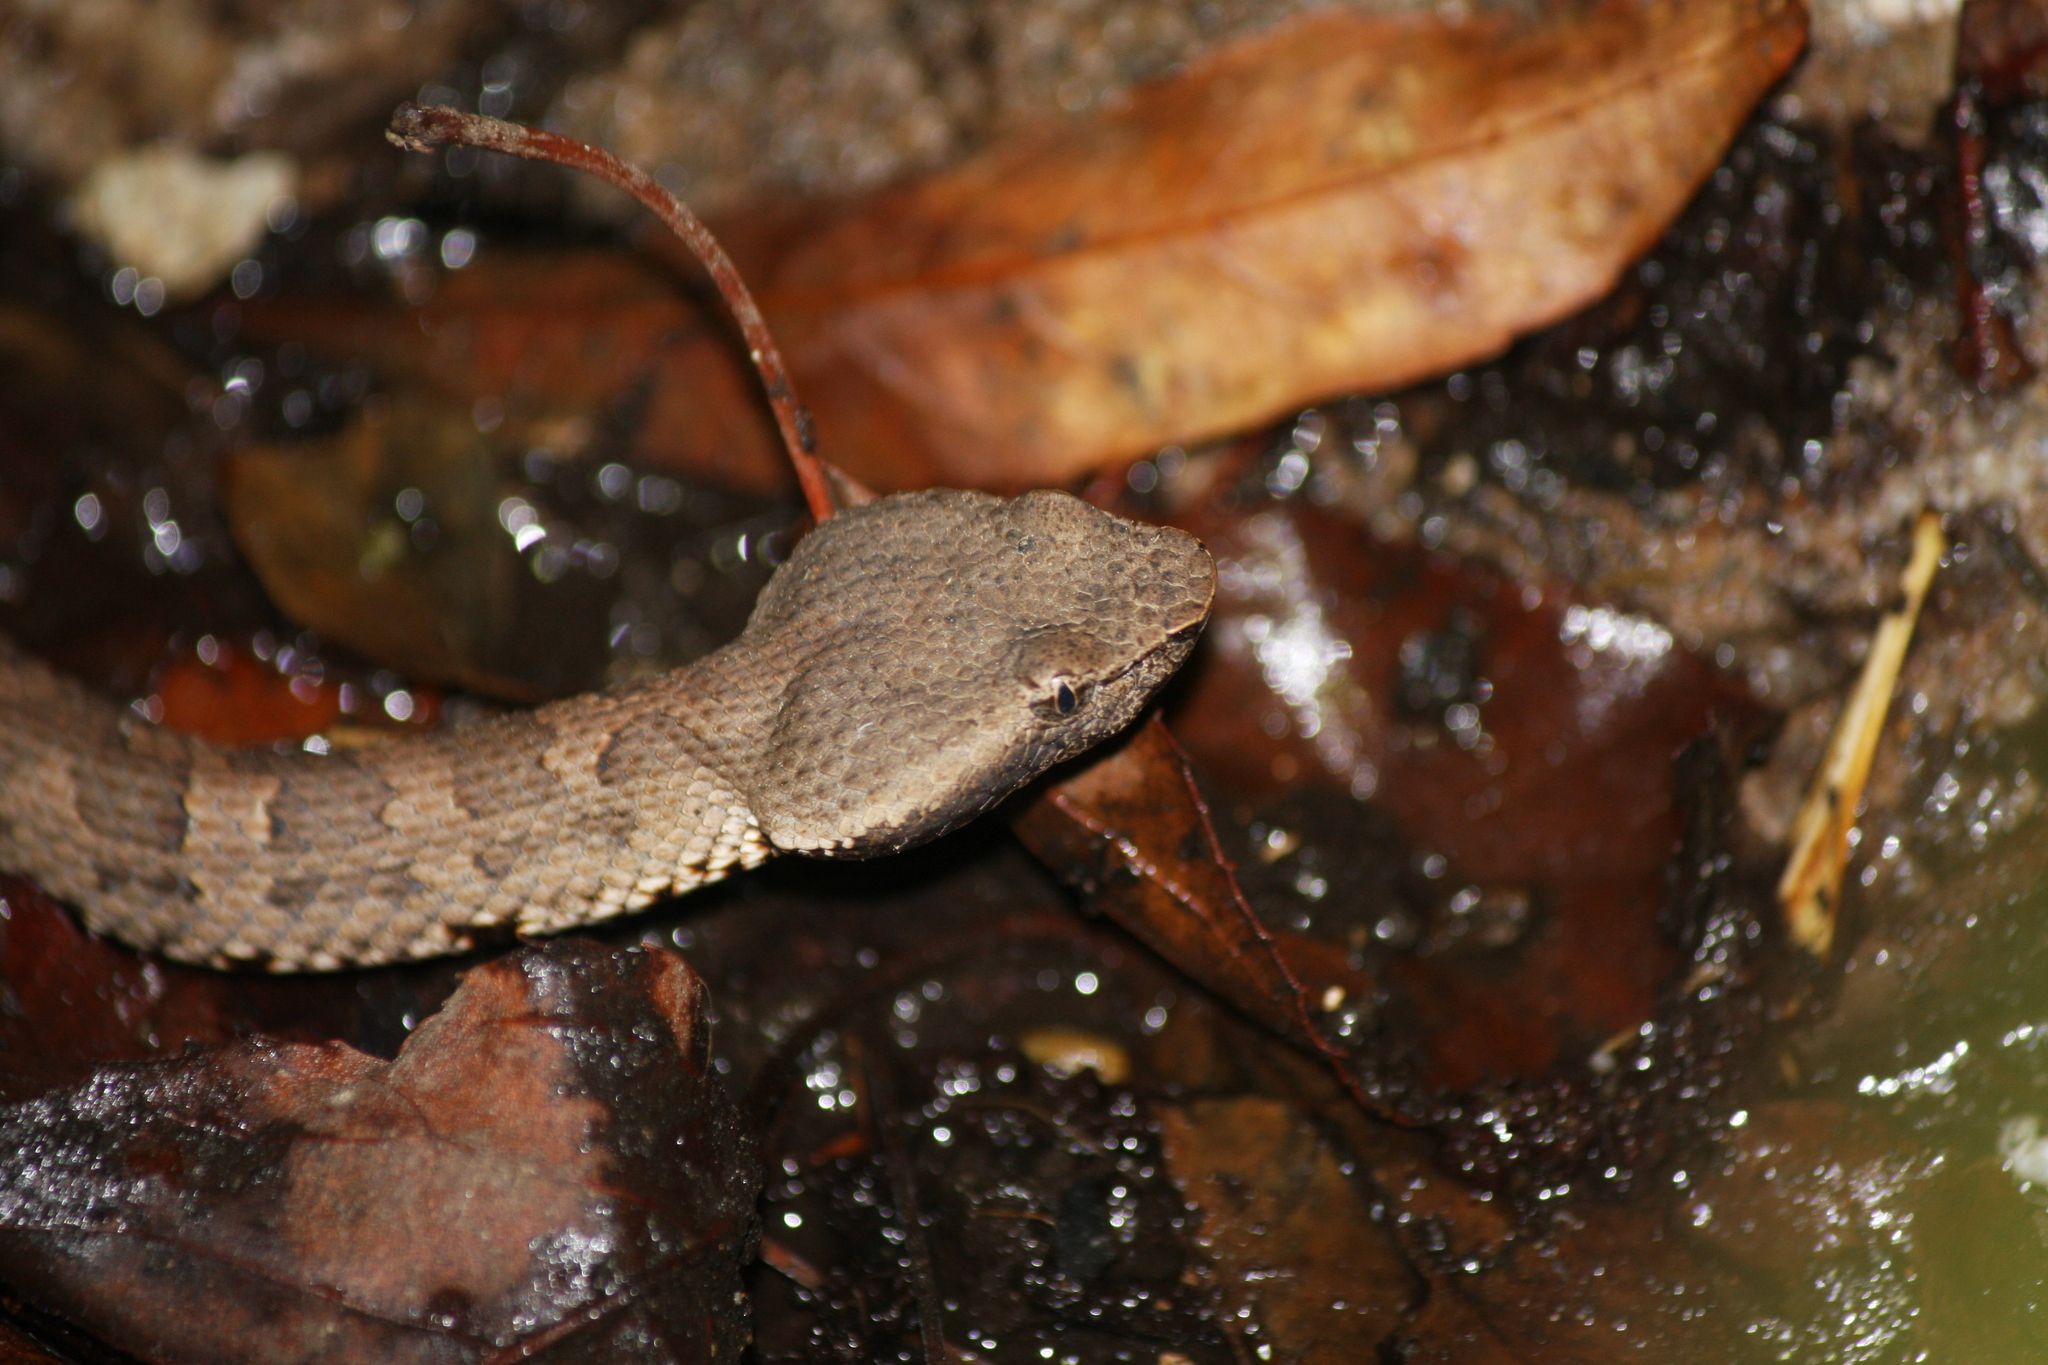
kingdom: Animalia
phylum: Chordata
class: Squamata
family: Viperidae
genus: Ovophis
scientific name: Ovophis okinavensis
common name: Okinawa pitviper
